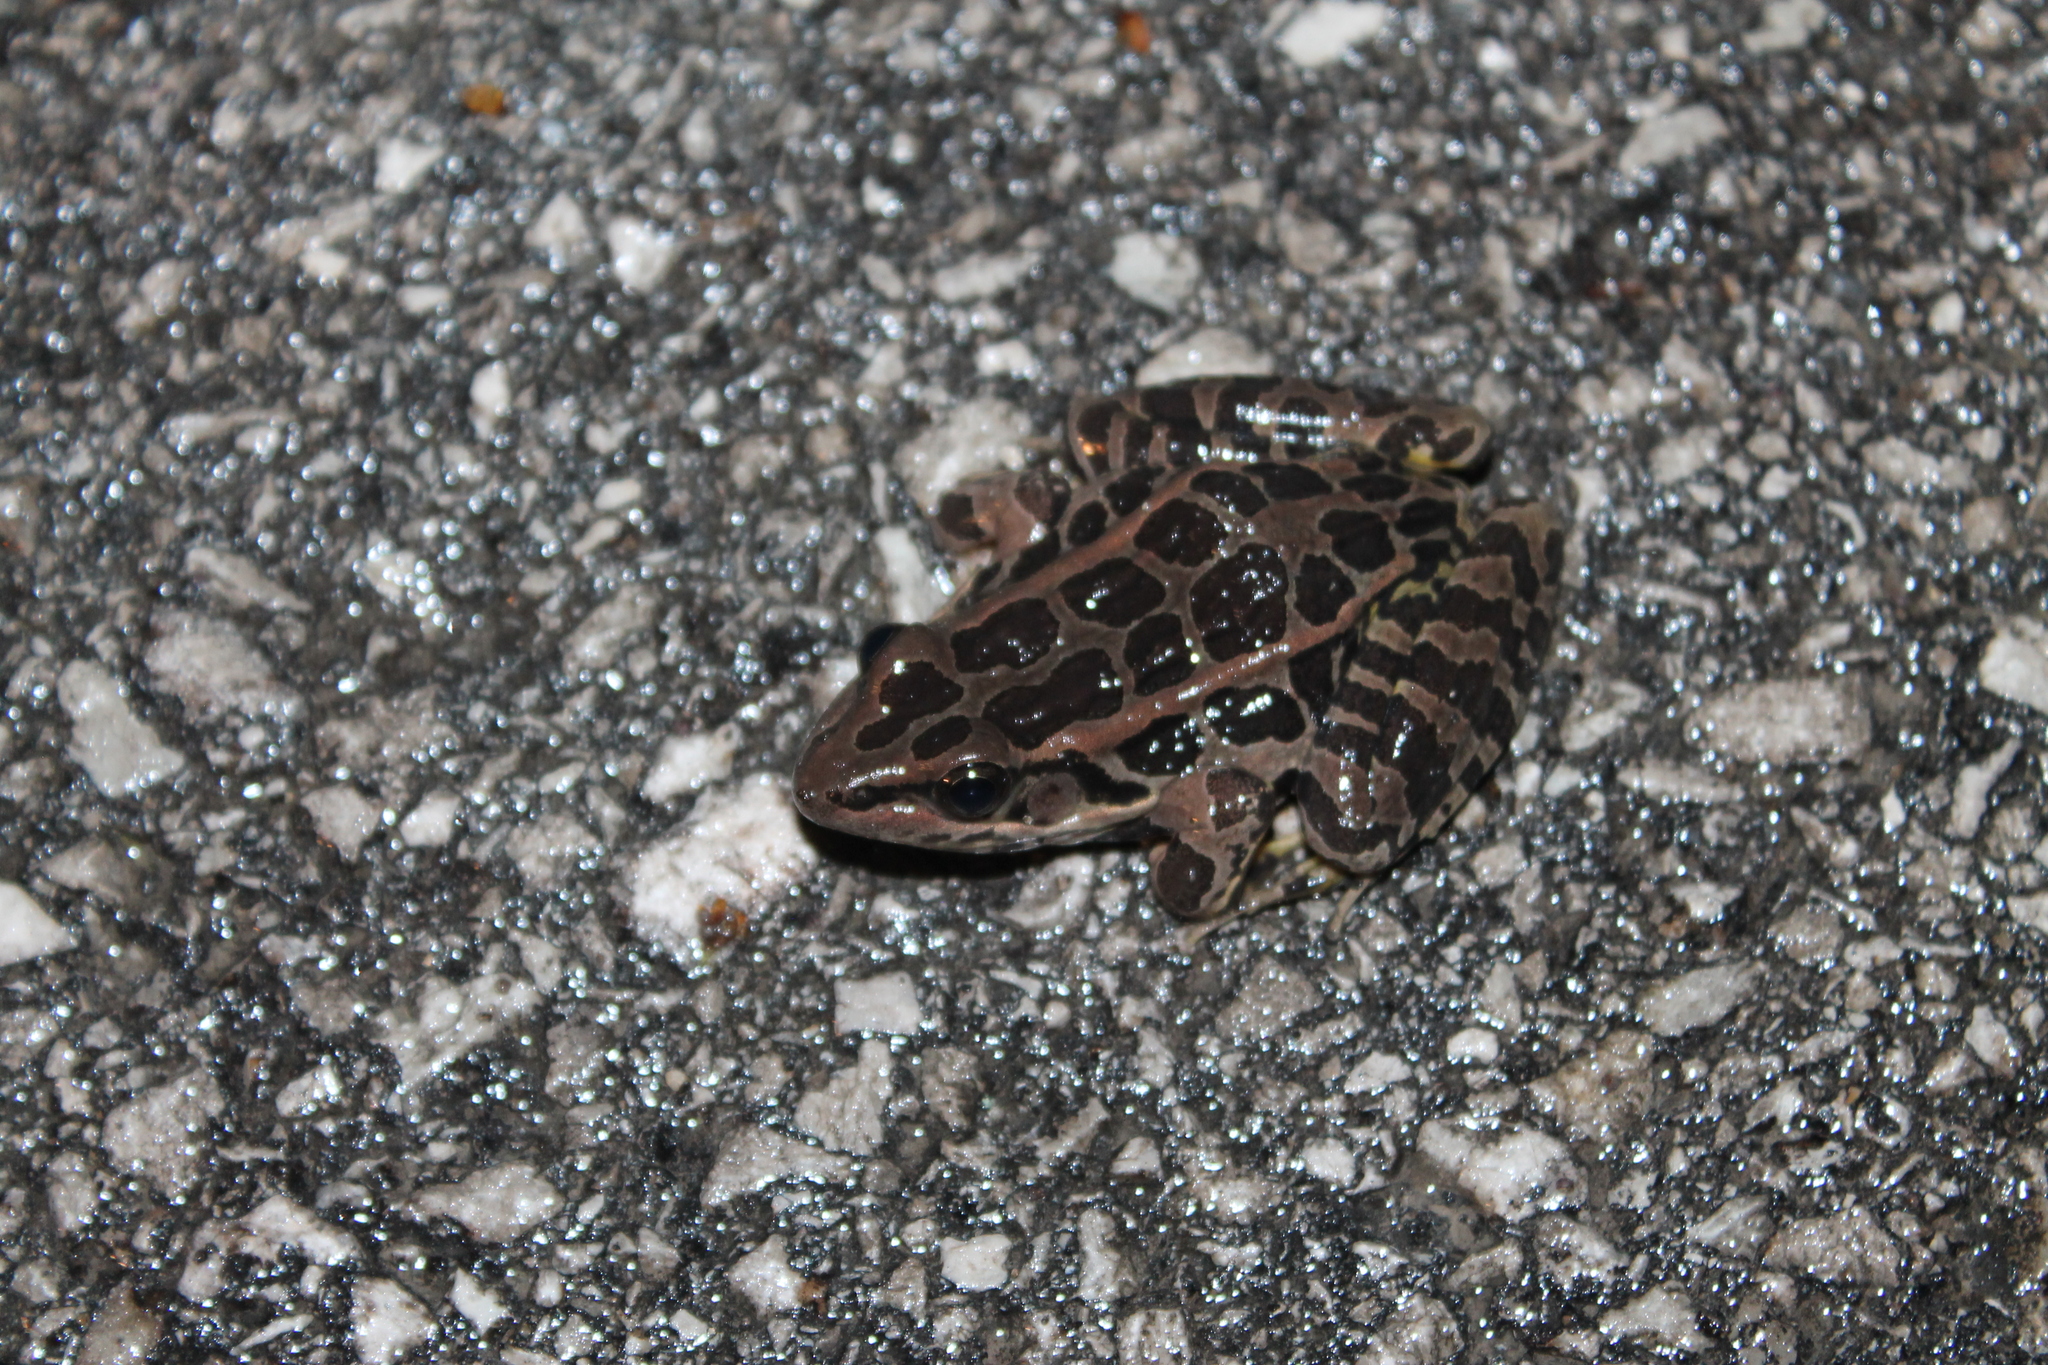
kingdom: Animalia
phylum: Chordata
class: Amphibia
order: Anura
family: Ranidae
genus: Lithobates
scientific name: Lithobates palustris
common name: Pickerel frog
